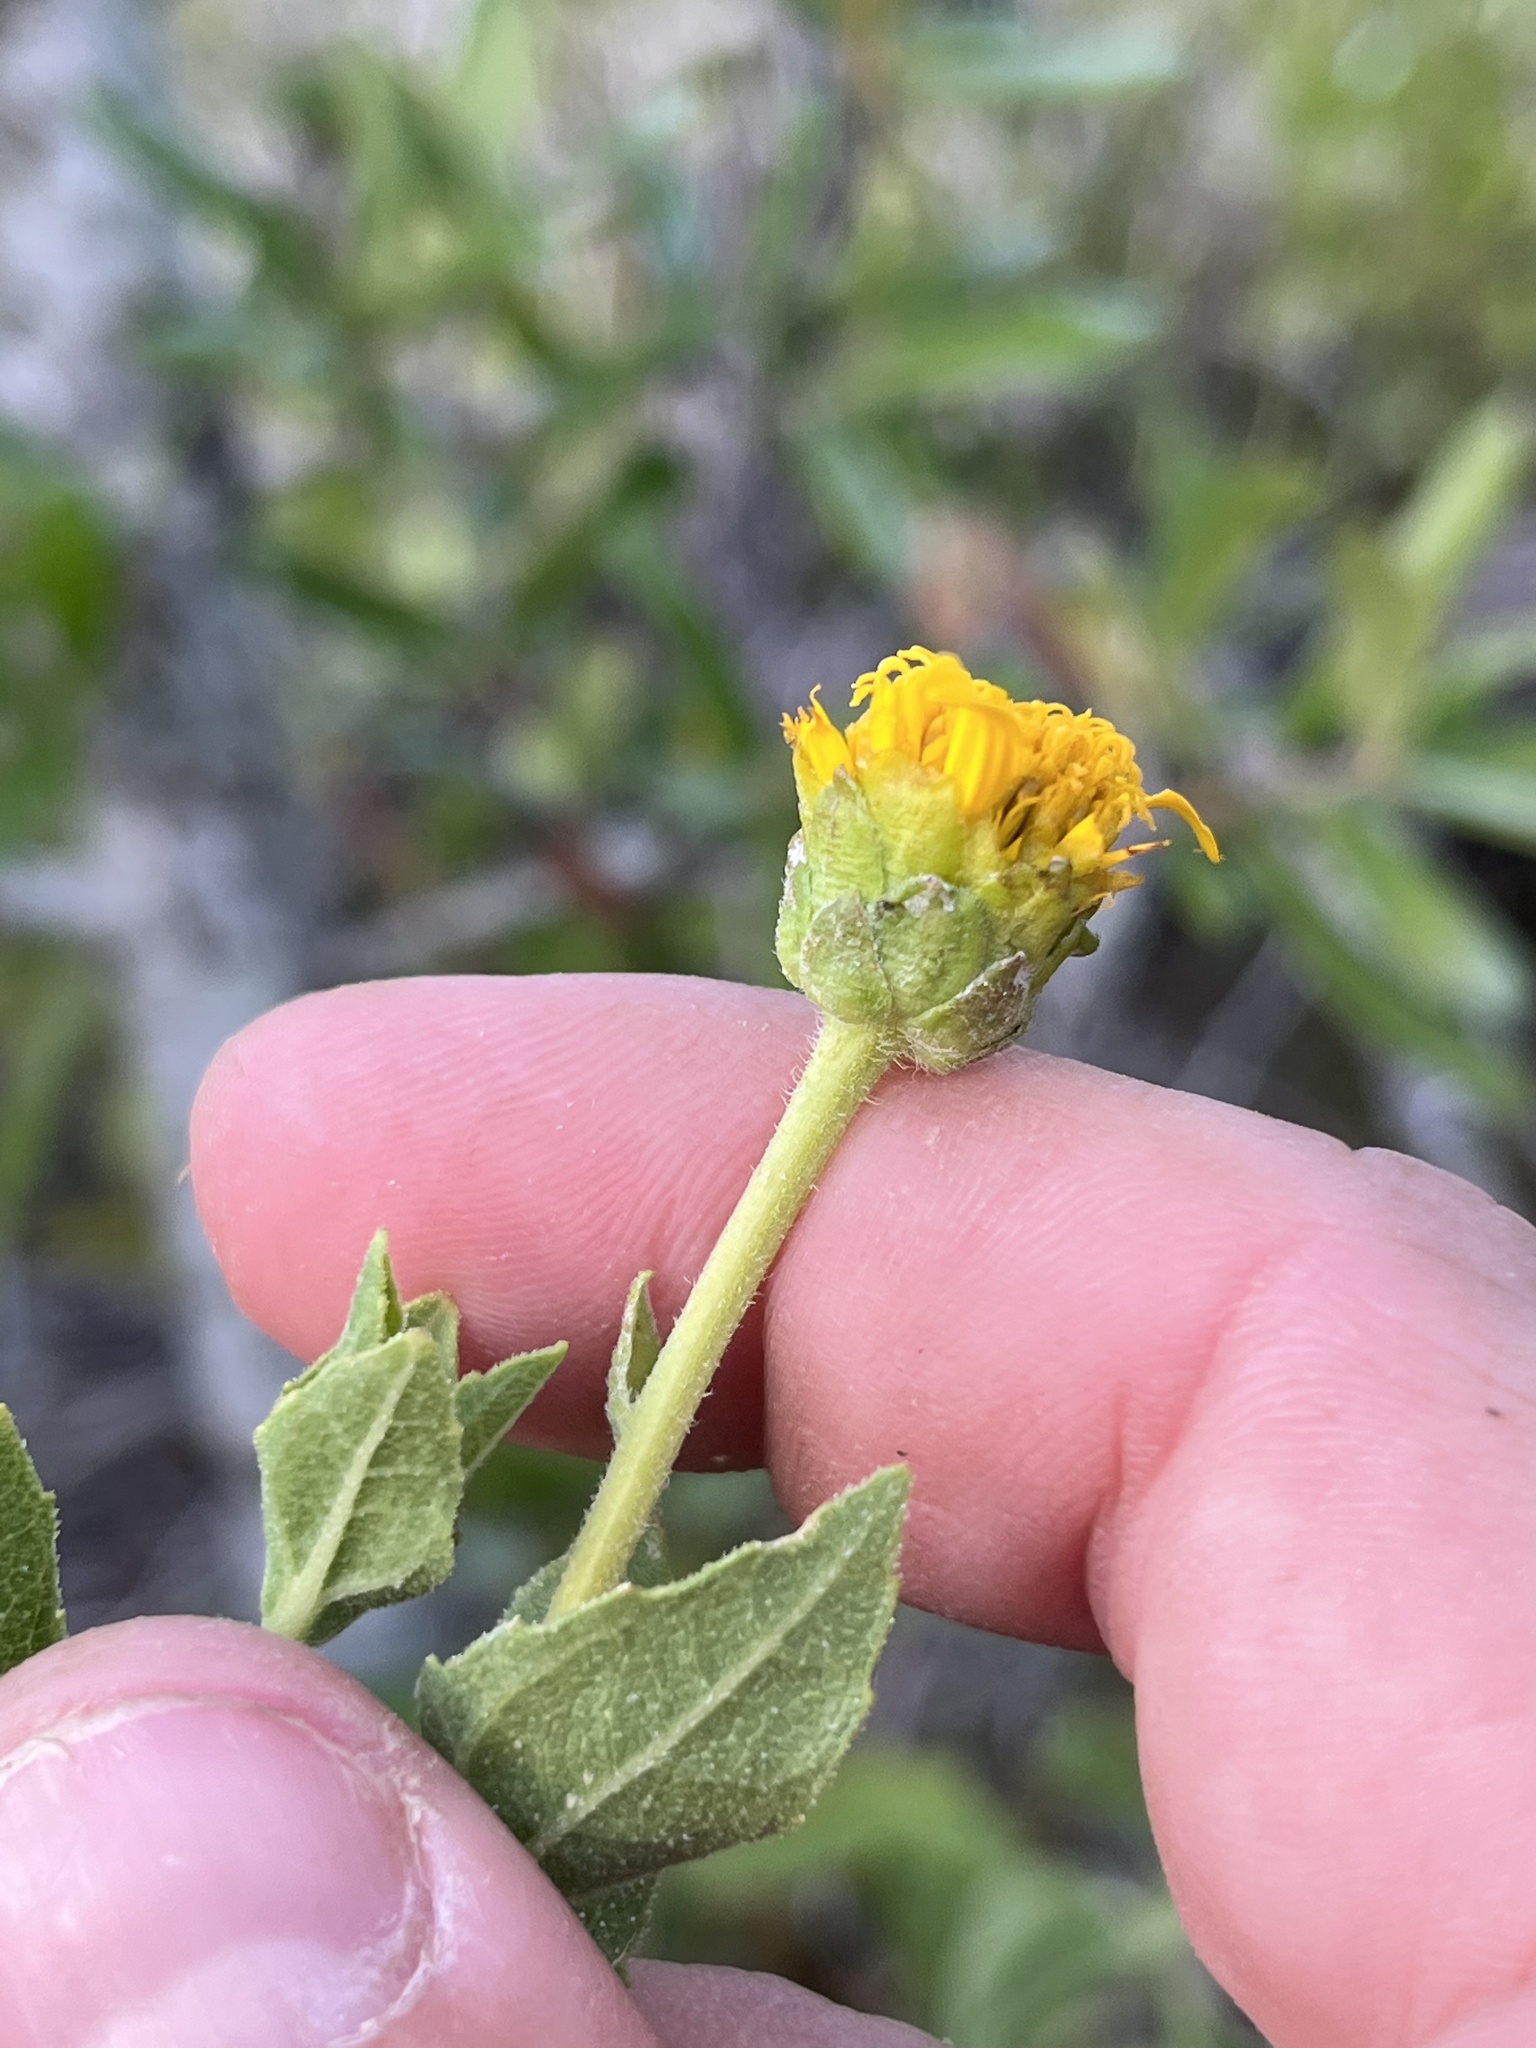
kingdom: Plantae
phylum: Tracheophyta
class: Magnoliopsida
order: Asterales
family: Asteraceae
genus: Verbesina
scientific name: Verbesina lindheimeri
